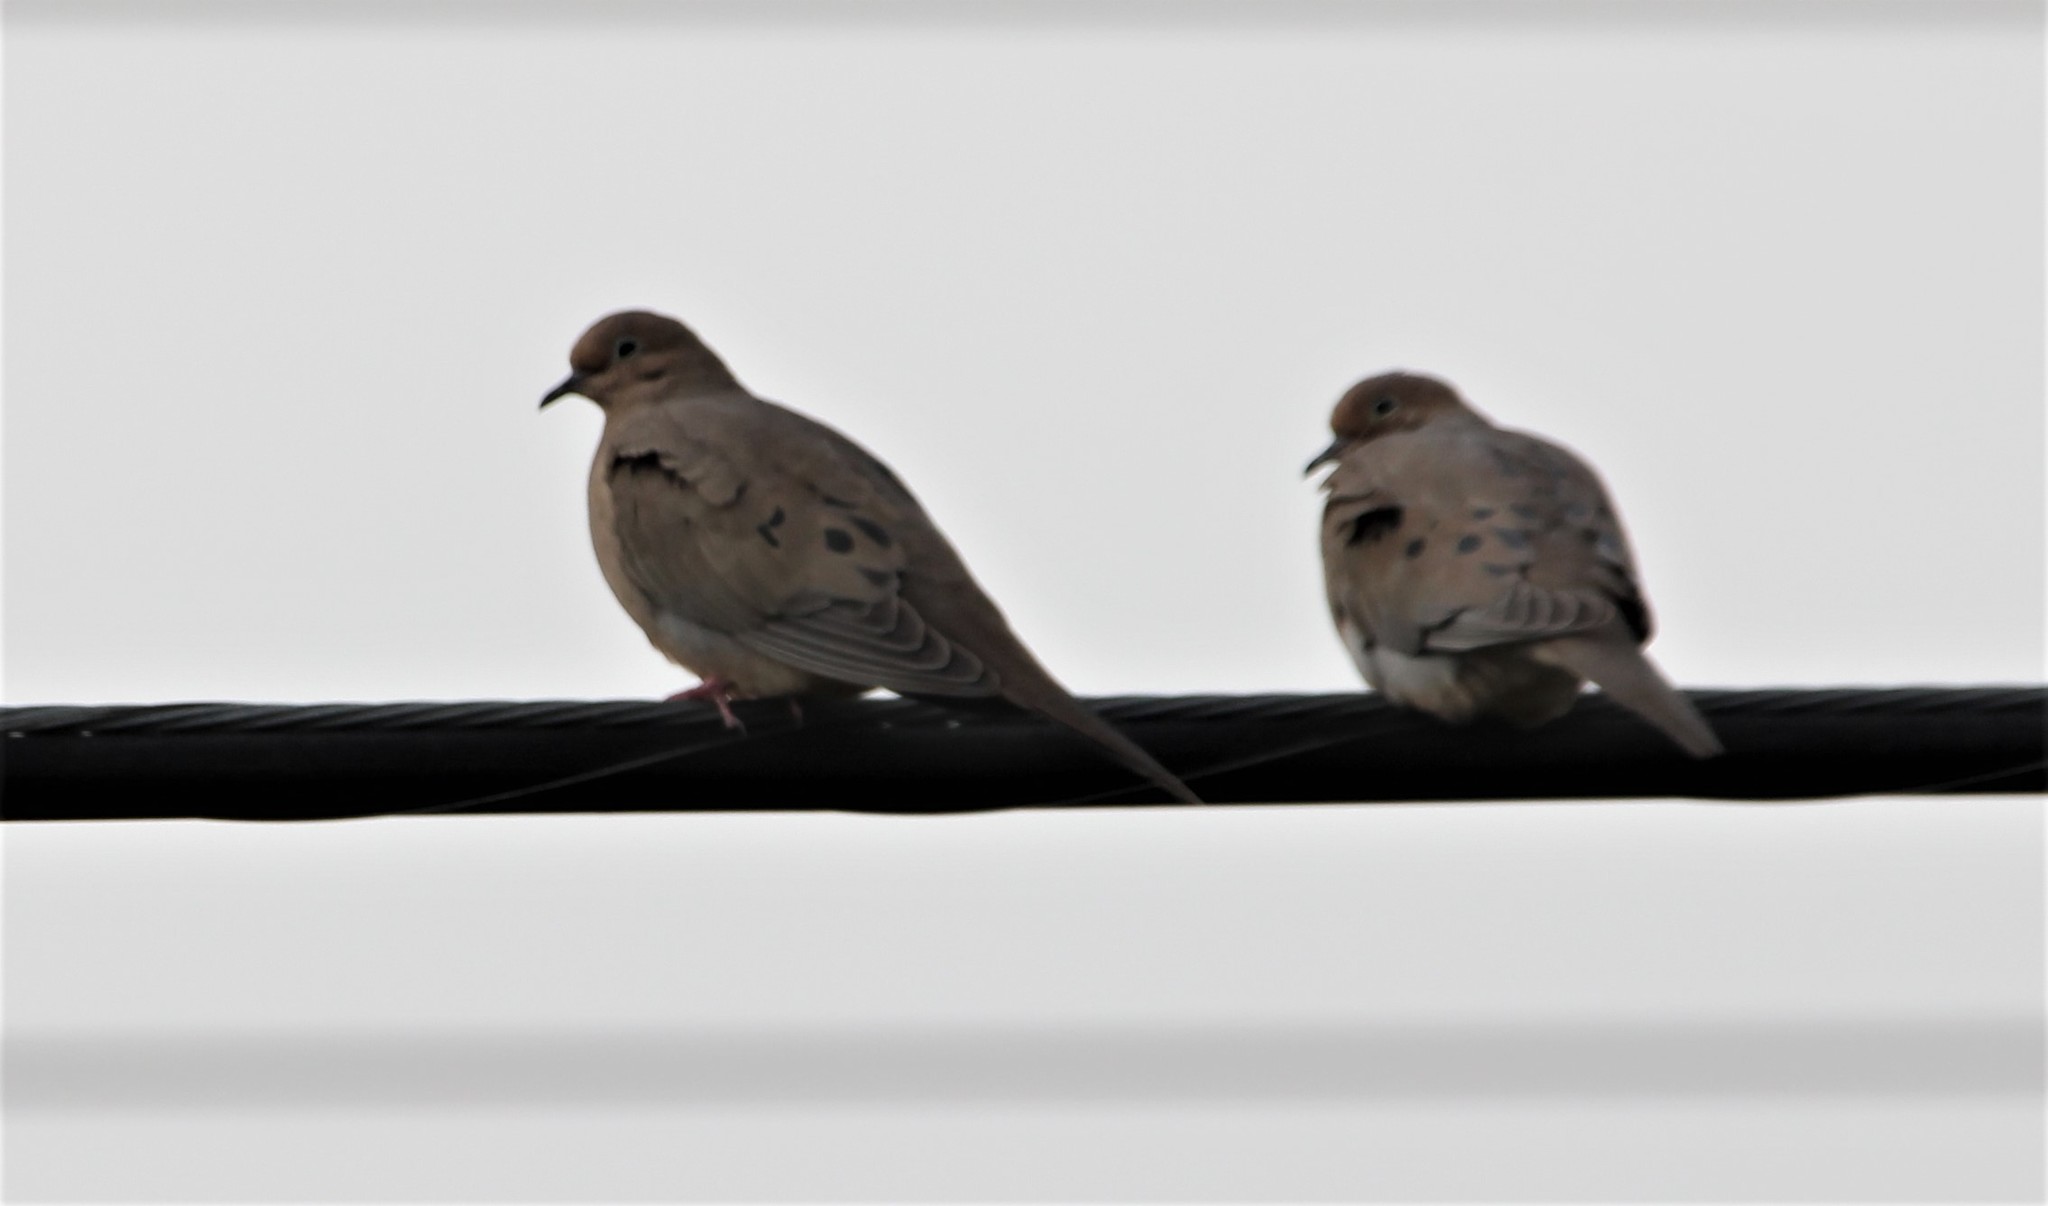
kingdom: Animalia
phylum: Chordata
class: Aves
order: Columbiformes
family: Columbidae
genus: Zenaida
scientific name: Zenaida macroura
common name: Mourning dove
